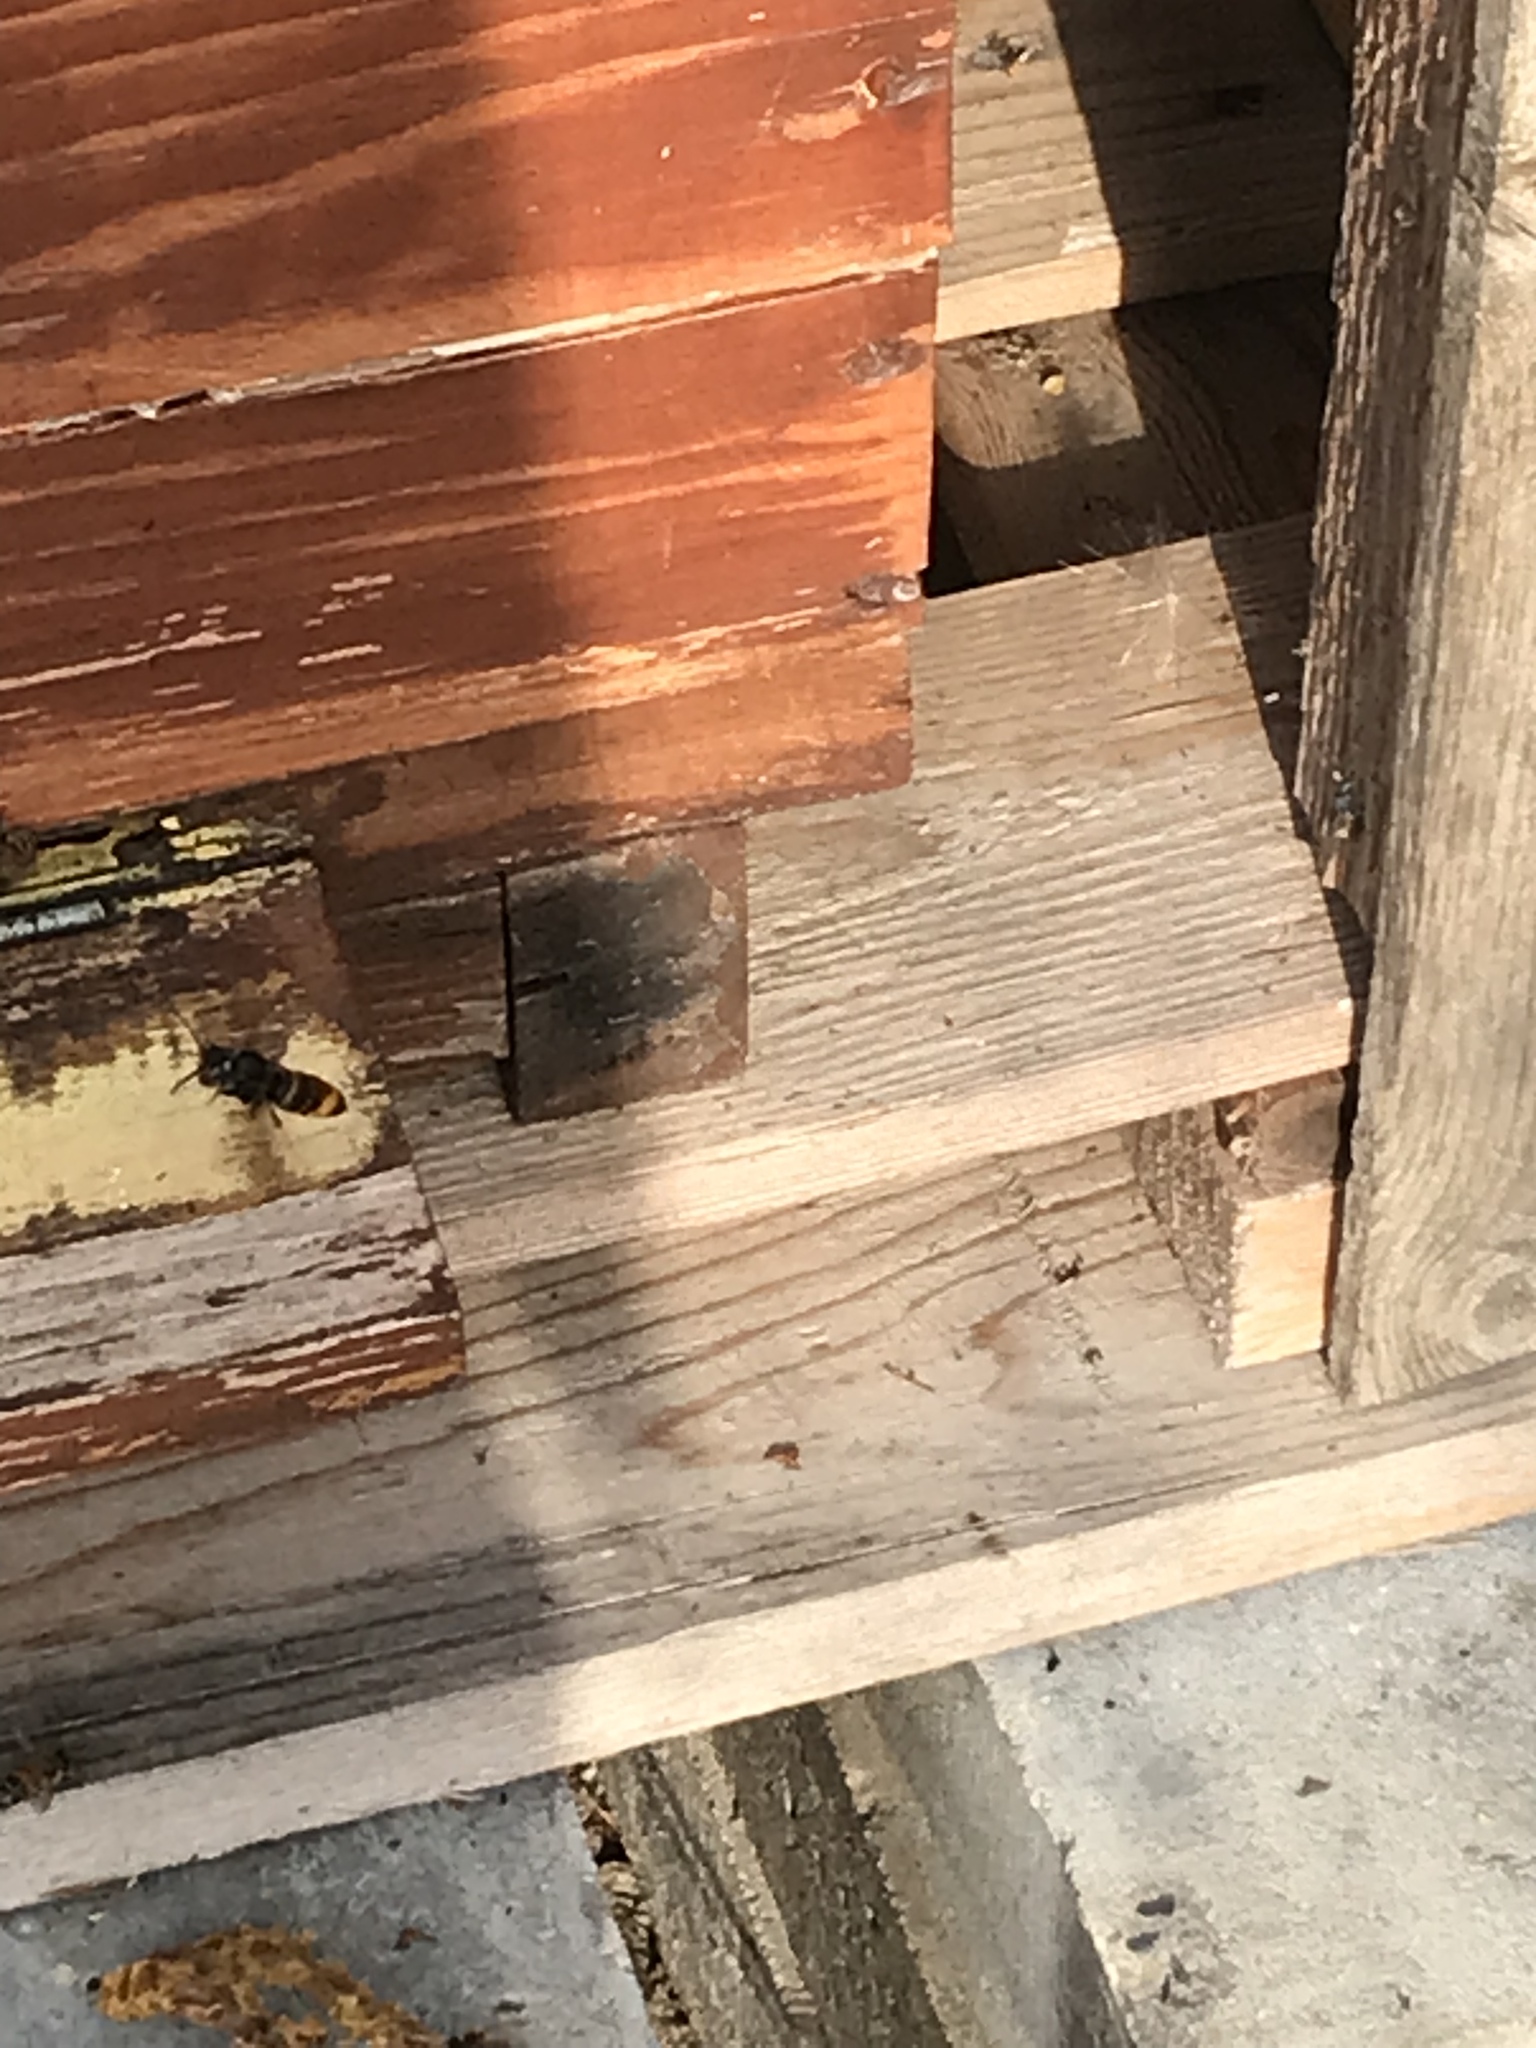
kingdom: Animalia
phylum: Arthropoda
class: Insecta
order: Hymenoptera
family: Vespidae
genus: Vespa
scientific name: Vespa velutina
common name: Asian hornet
